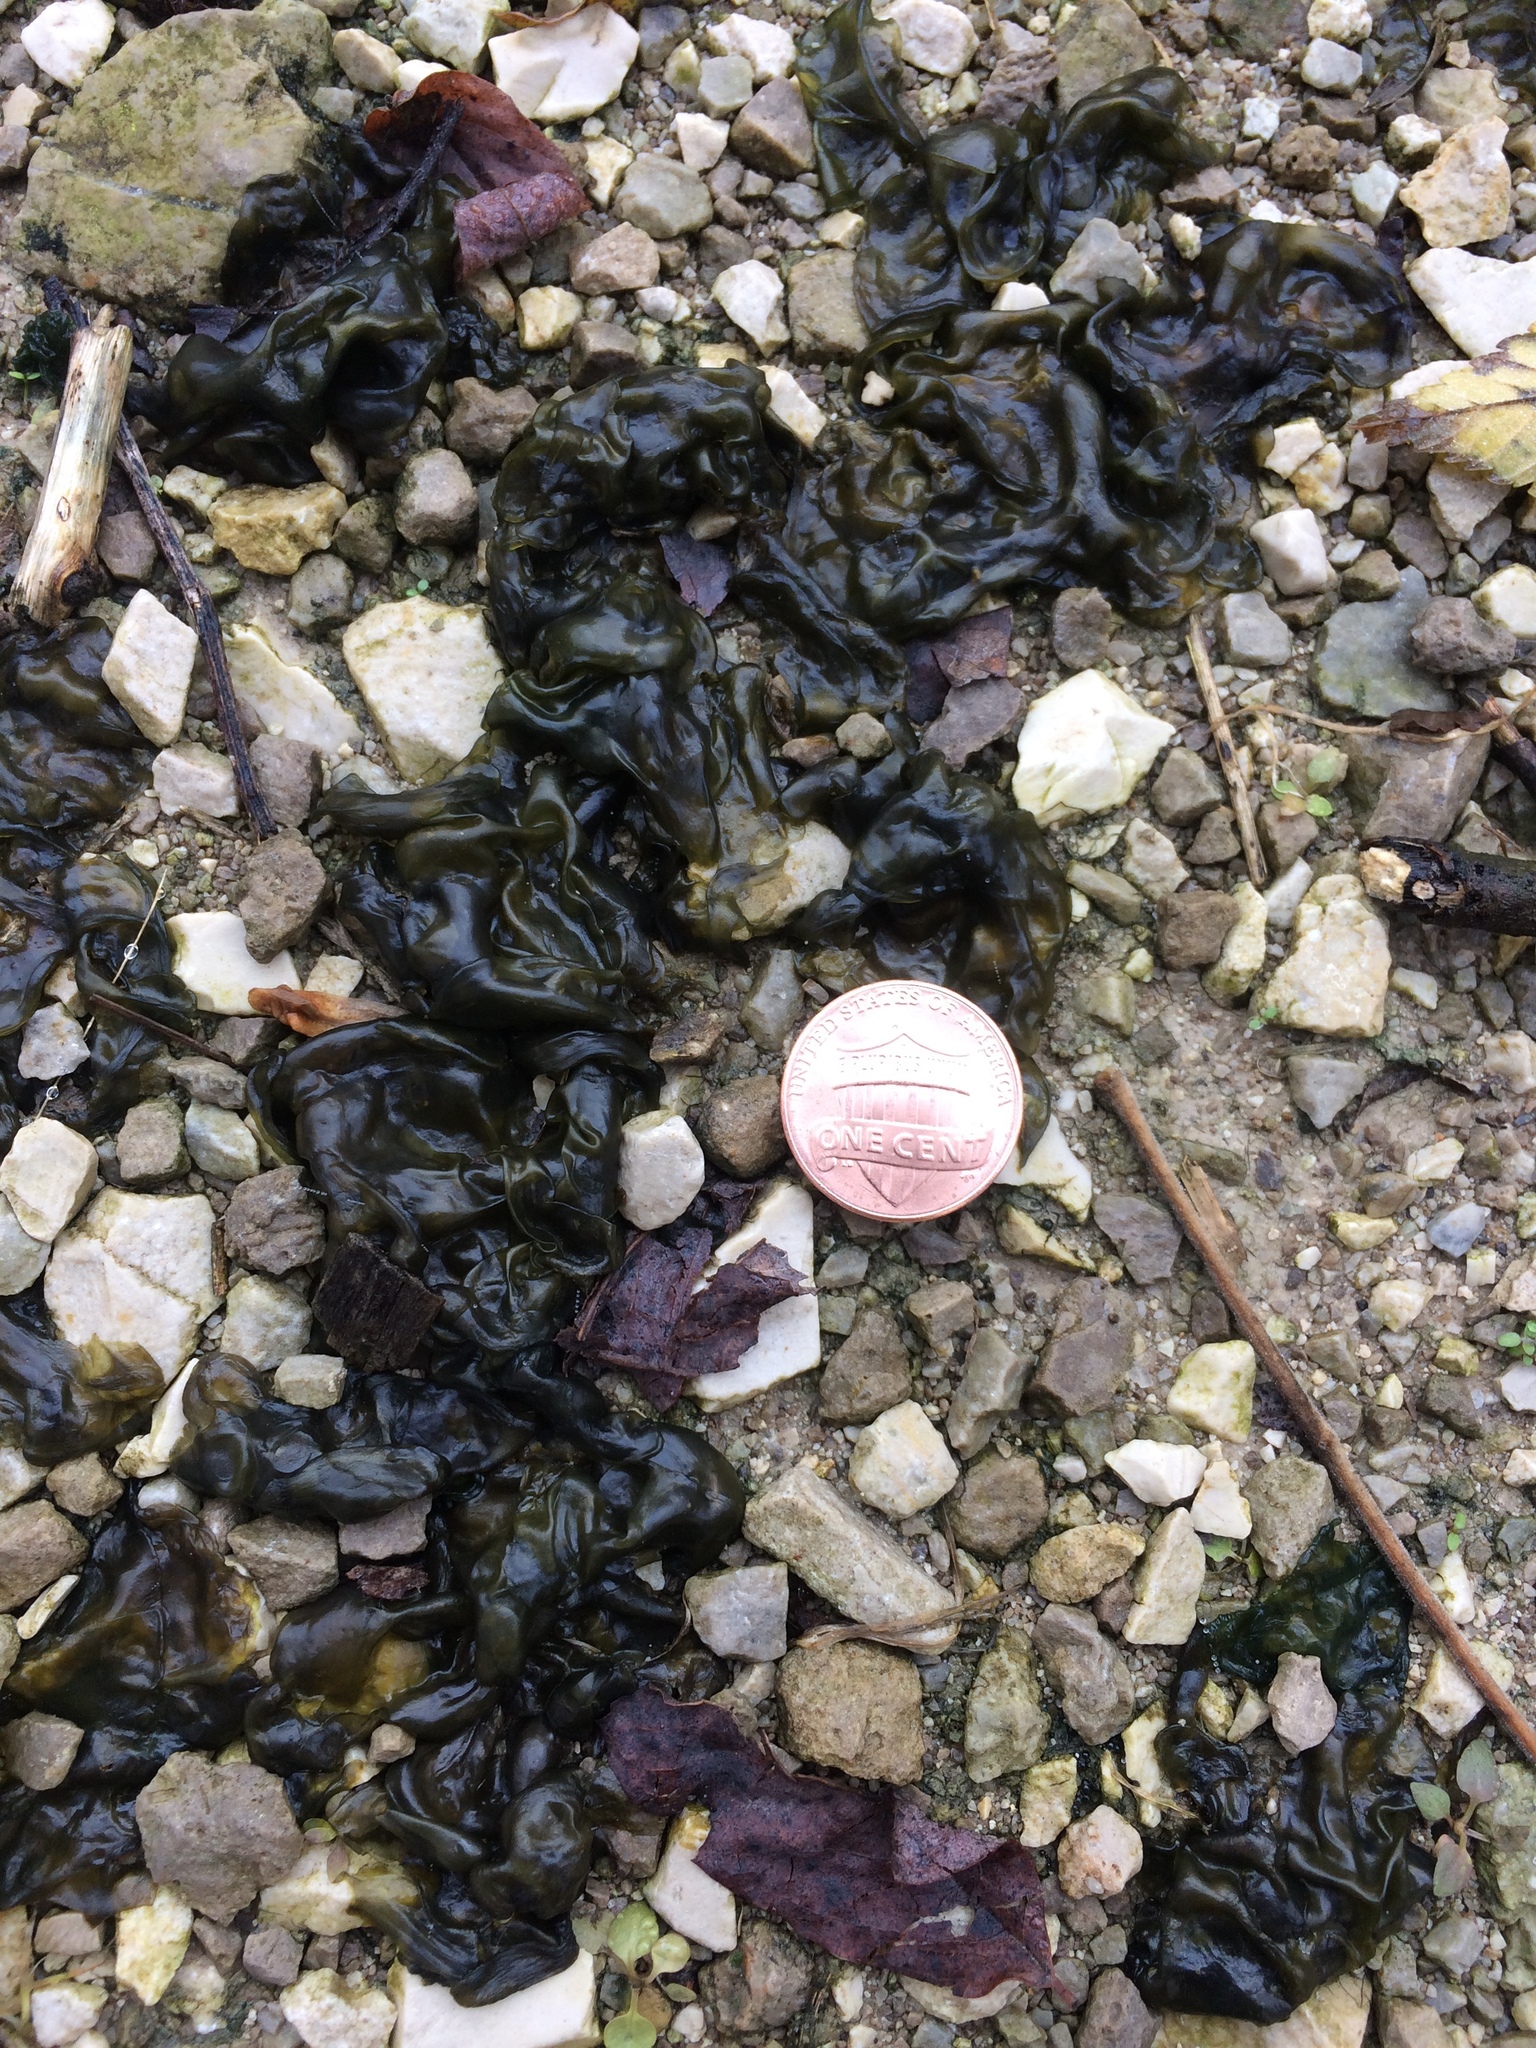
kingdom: Bacteria
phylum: Cyanobacteria
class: Cyanobacteriia
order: Cyanobacteriales
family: Nostocaceae
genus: Nostoc
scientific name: Nostoc commune
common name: Star jelly
